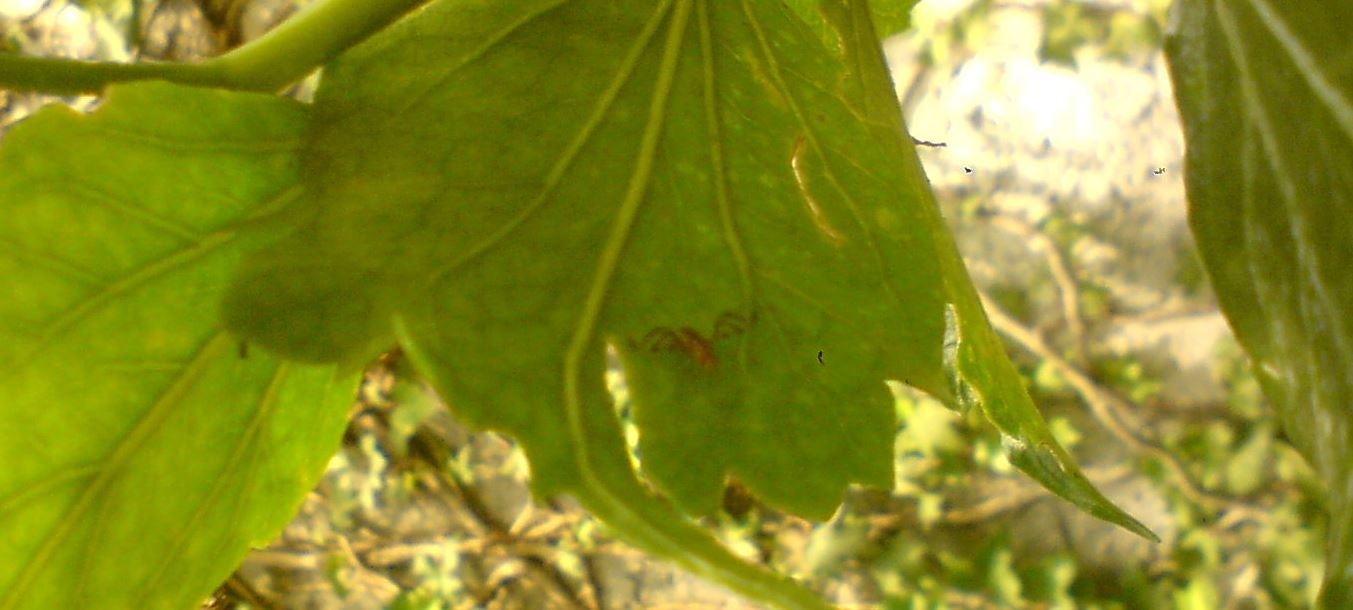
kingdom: Animalia
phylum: Arthropoda
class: Insecta
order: Diptera
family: Lauxaniidae
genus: Xenopterella
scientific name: Xenopterella obliqua
